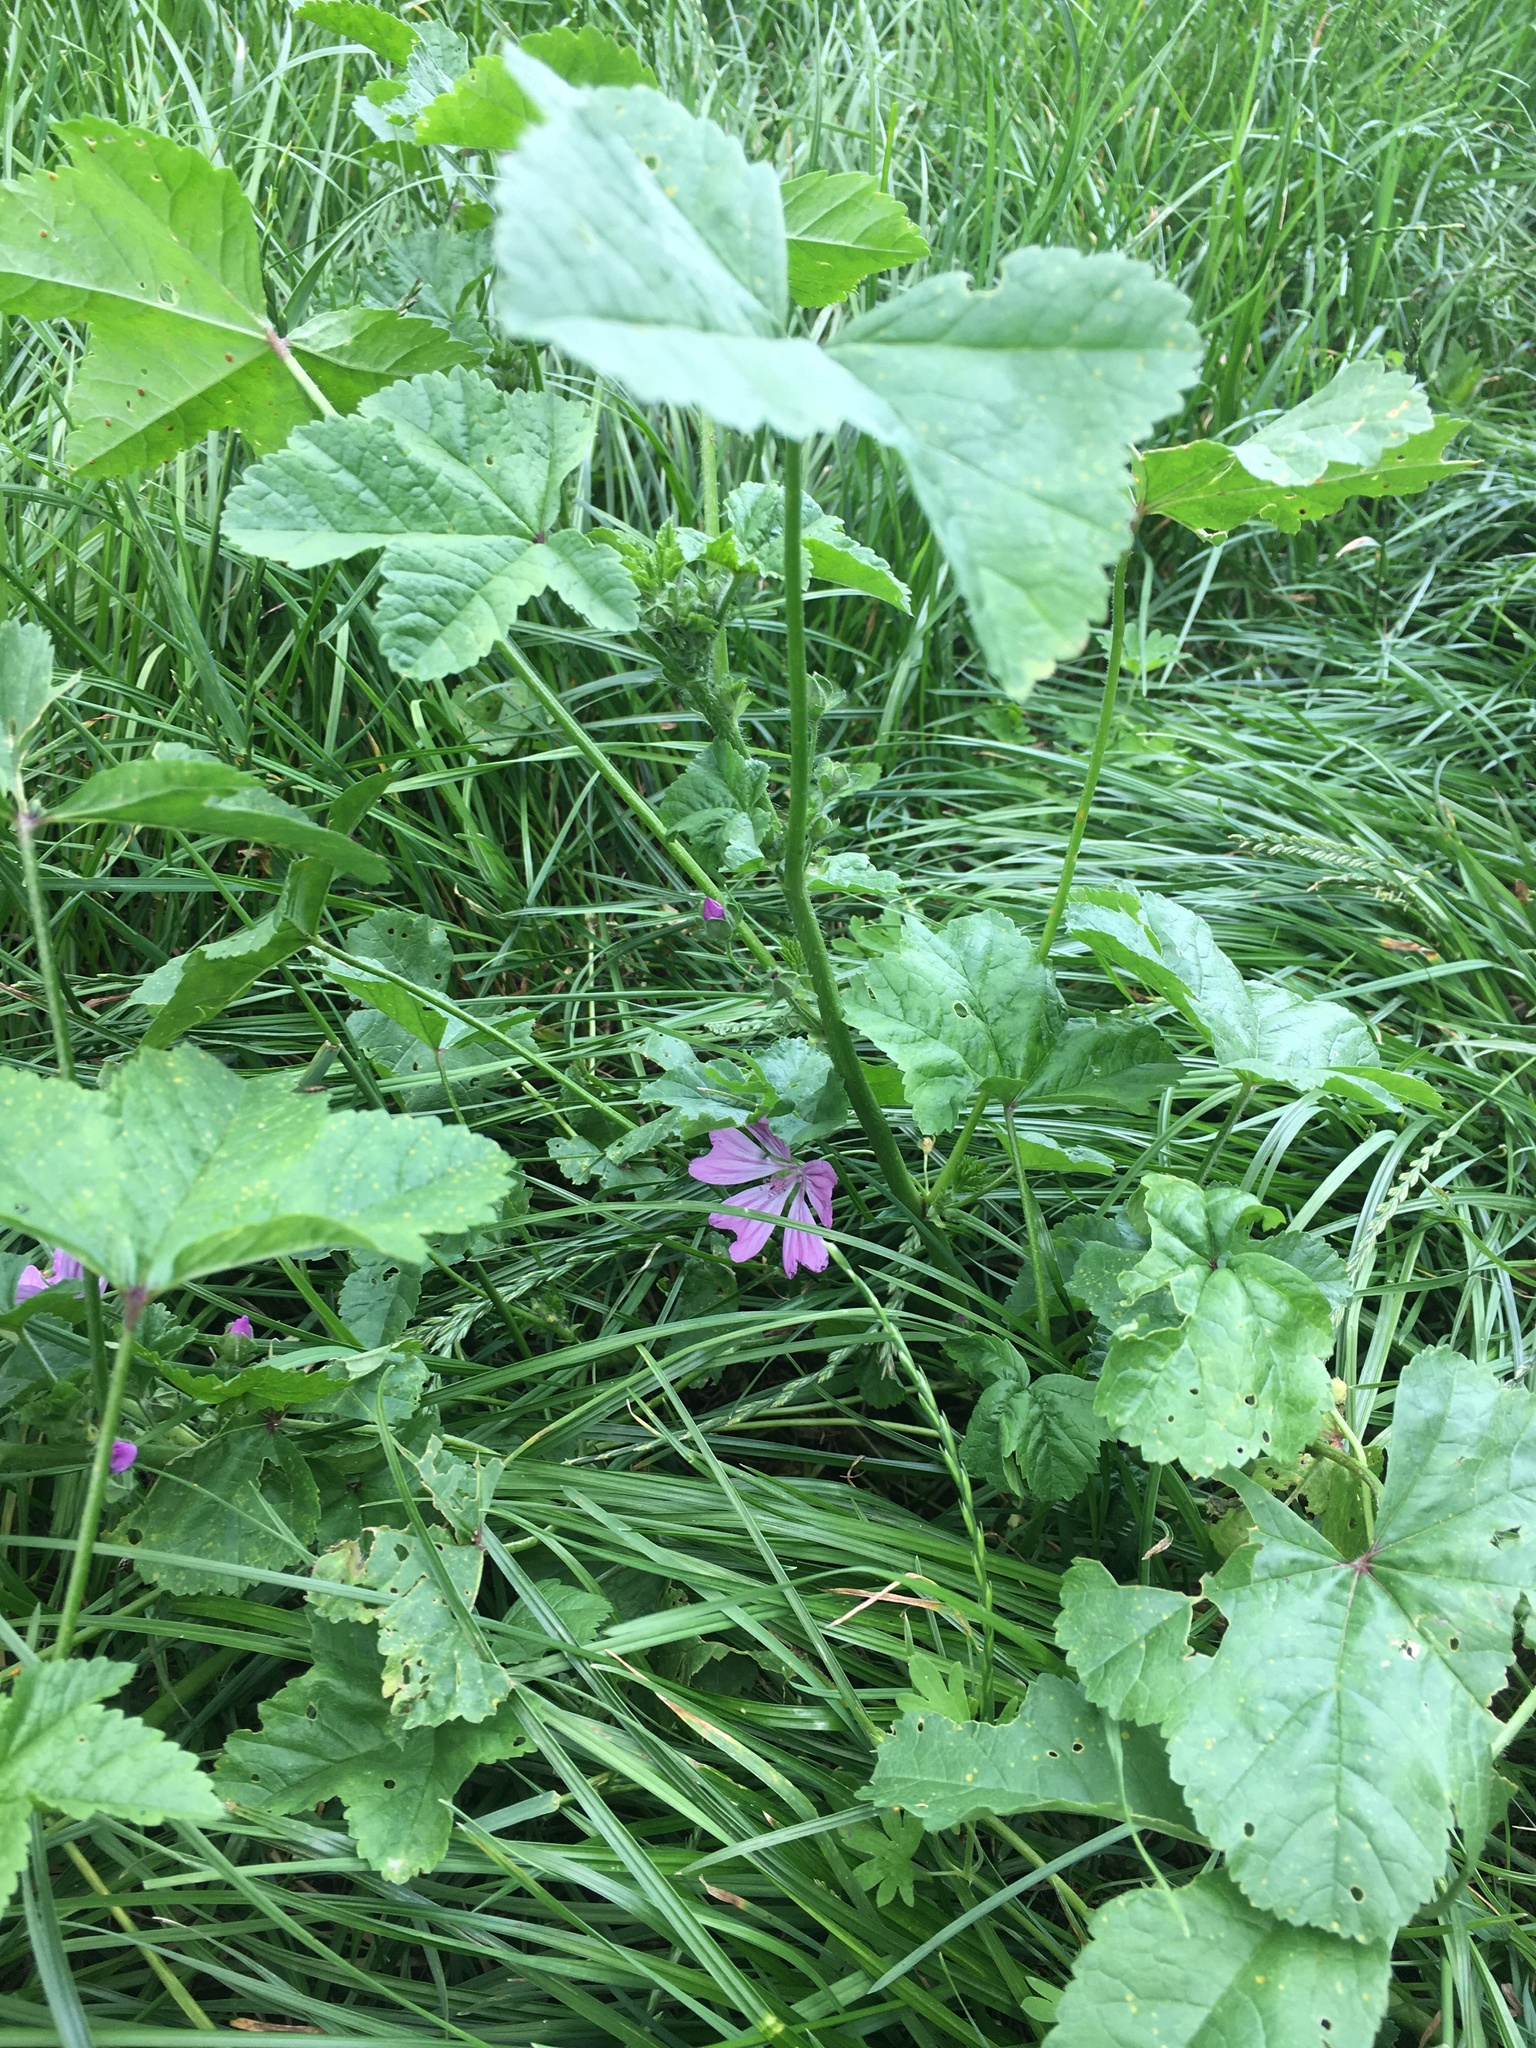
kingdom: Plantae
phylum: Tracheophyta
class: Magnoliopsida
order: Malvales
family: Malvaceae
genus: Malva
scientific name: Malva sylvestris
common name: Common mallow
